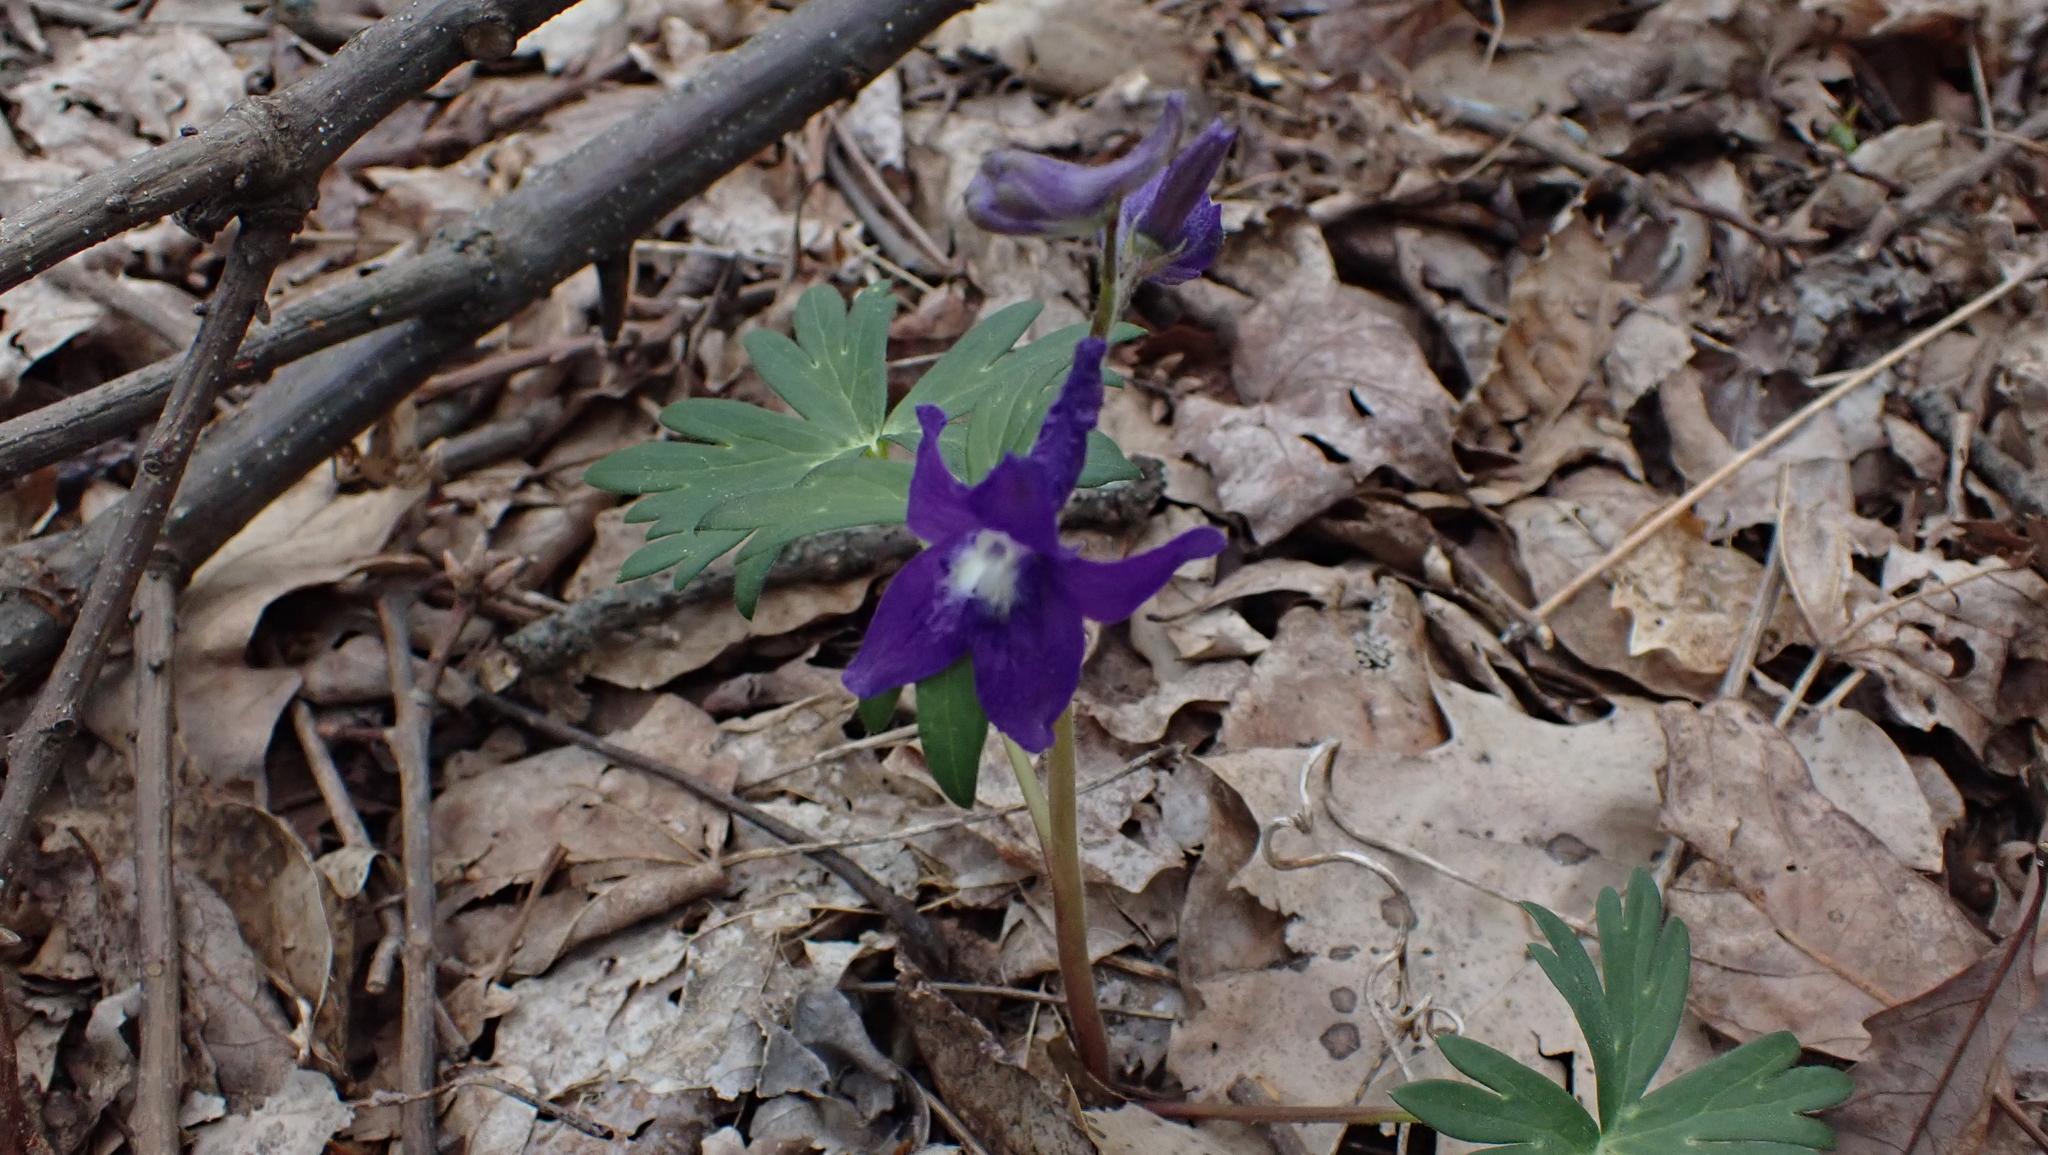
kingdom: Plantae
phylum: Tracheophyta
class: Magnoliopsida
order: Ranunculales
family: Ranunculaceae
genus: Delphinium
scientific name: Delphinium tricorne
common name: Dwarf larkspur
